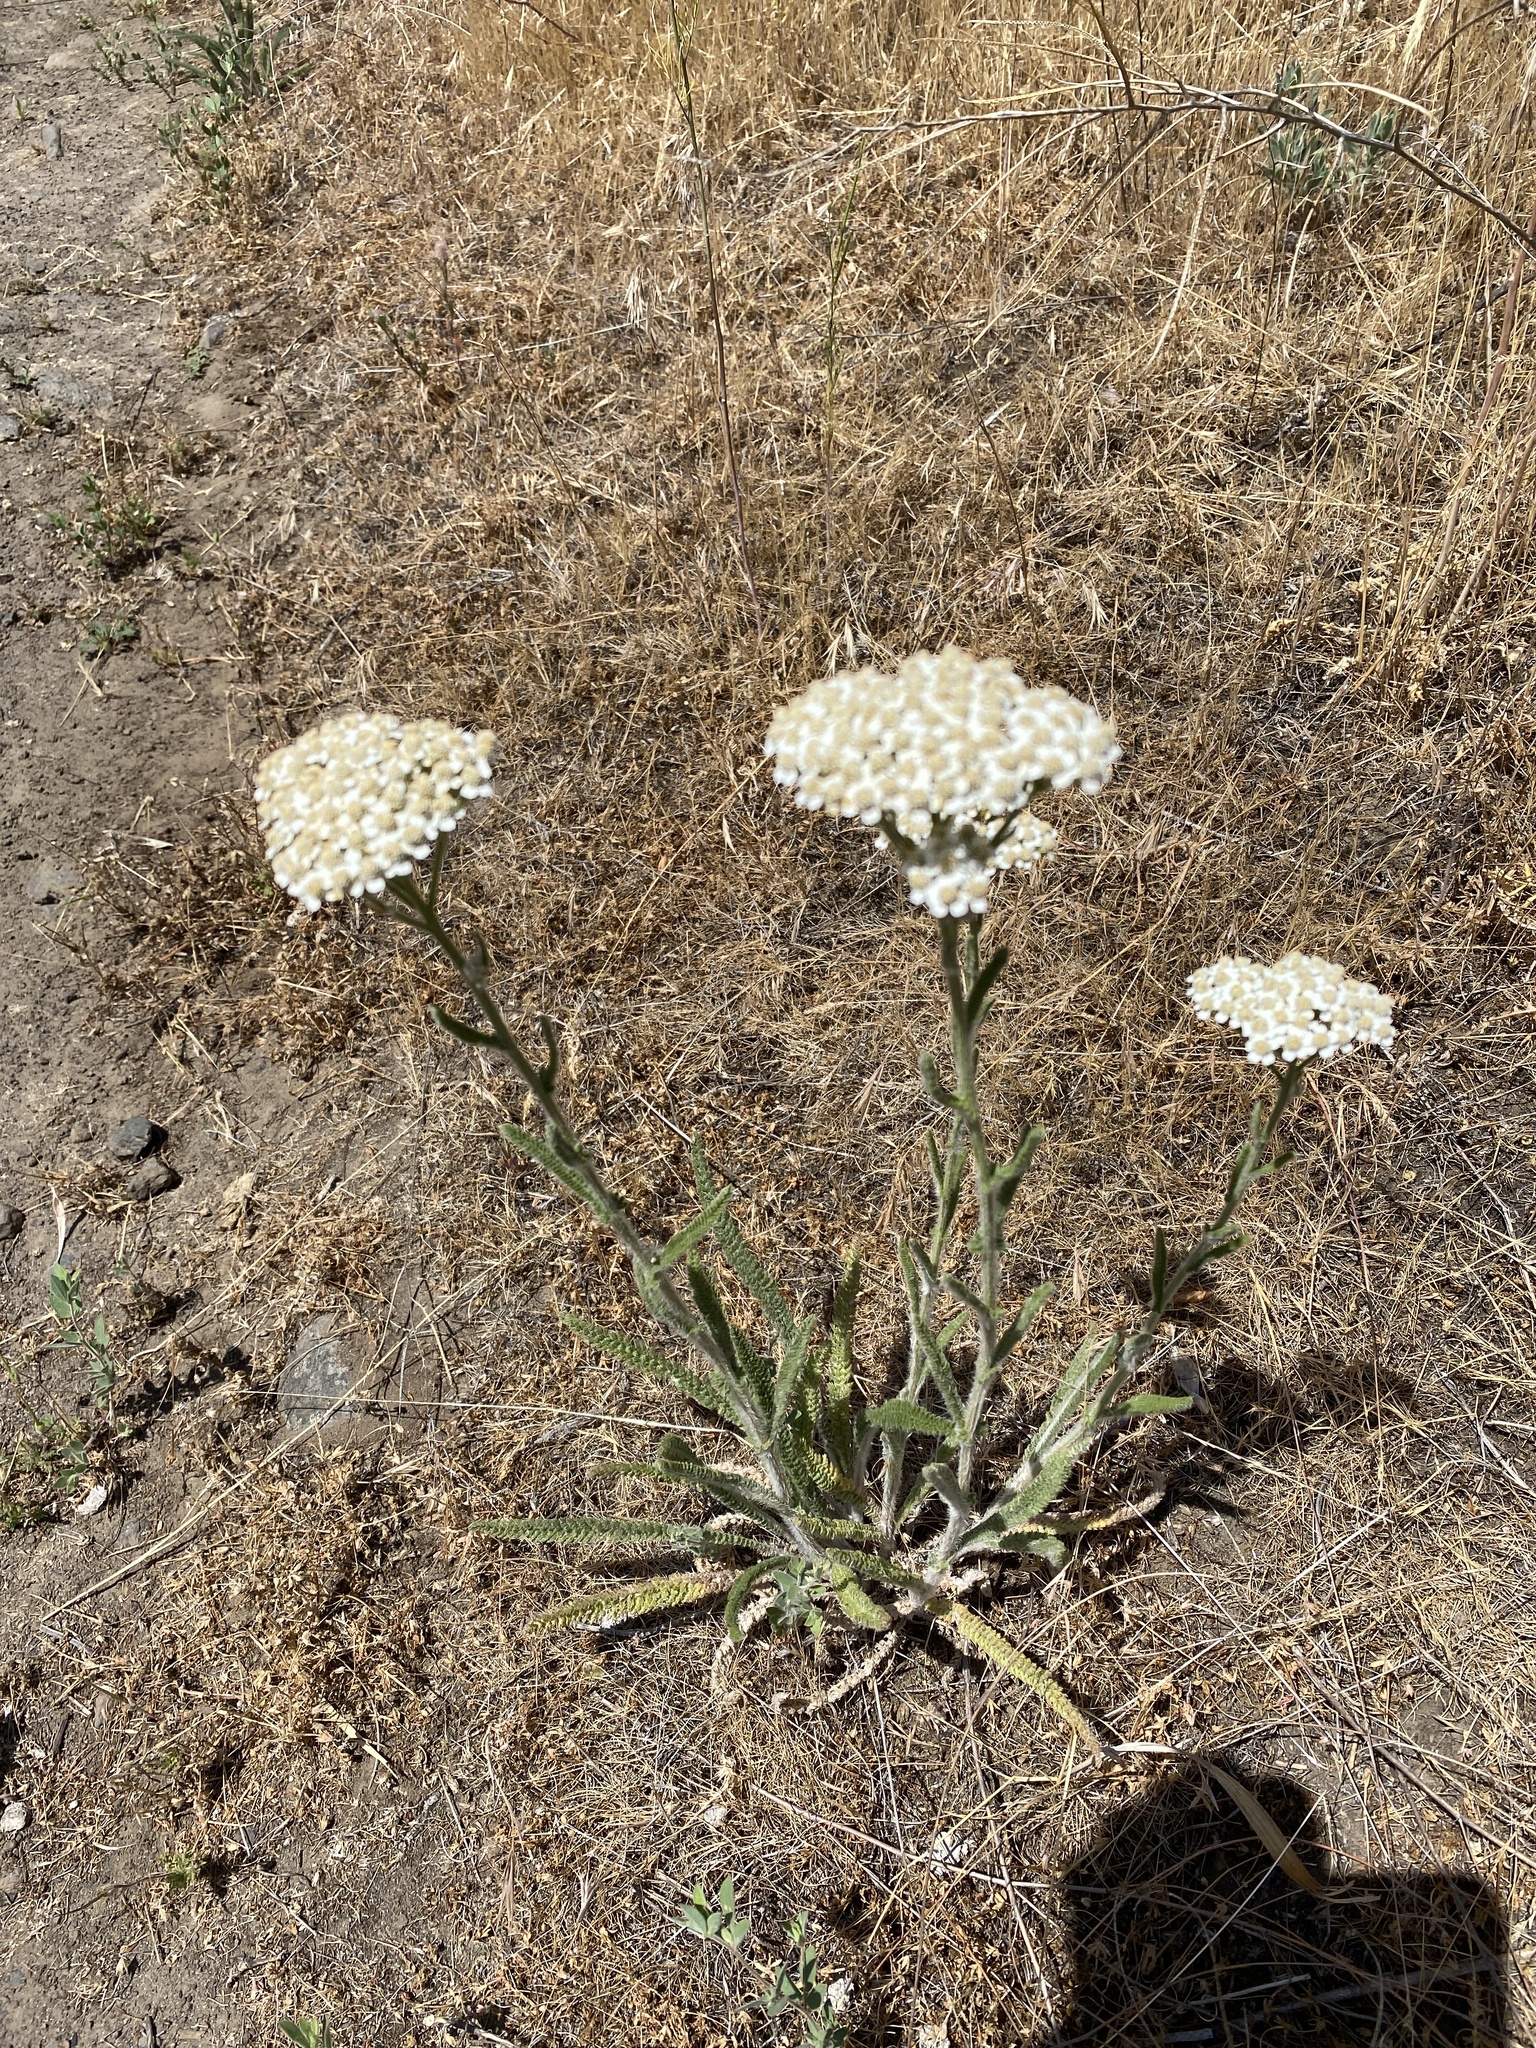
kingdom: Plantae
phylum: Tracheophyta
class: Magnoliopsida
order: Asterales
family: Asteraceae
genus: Achillea
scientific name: Achillea millefolium
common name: Yarrow
